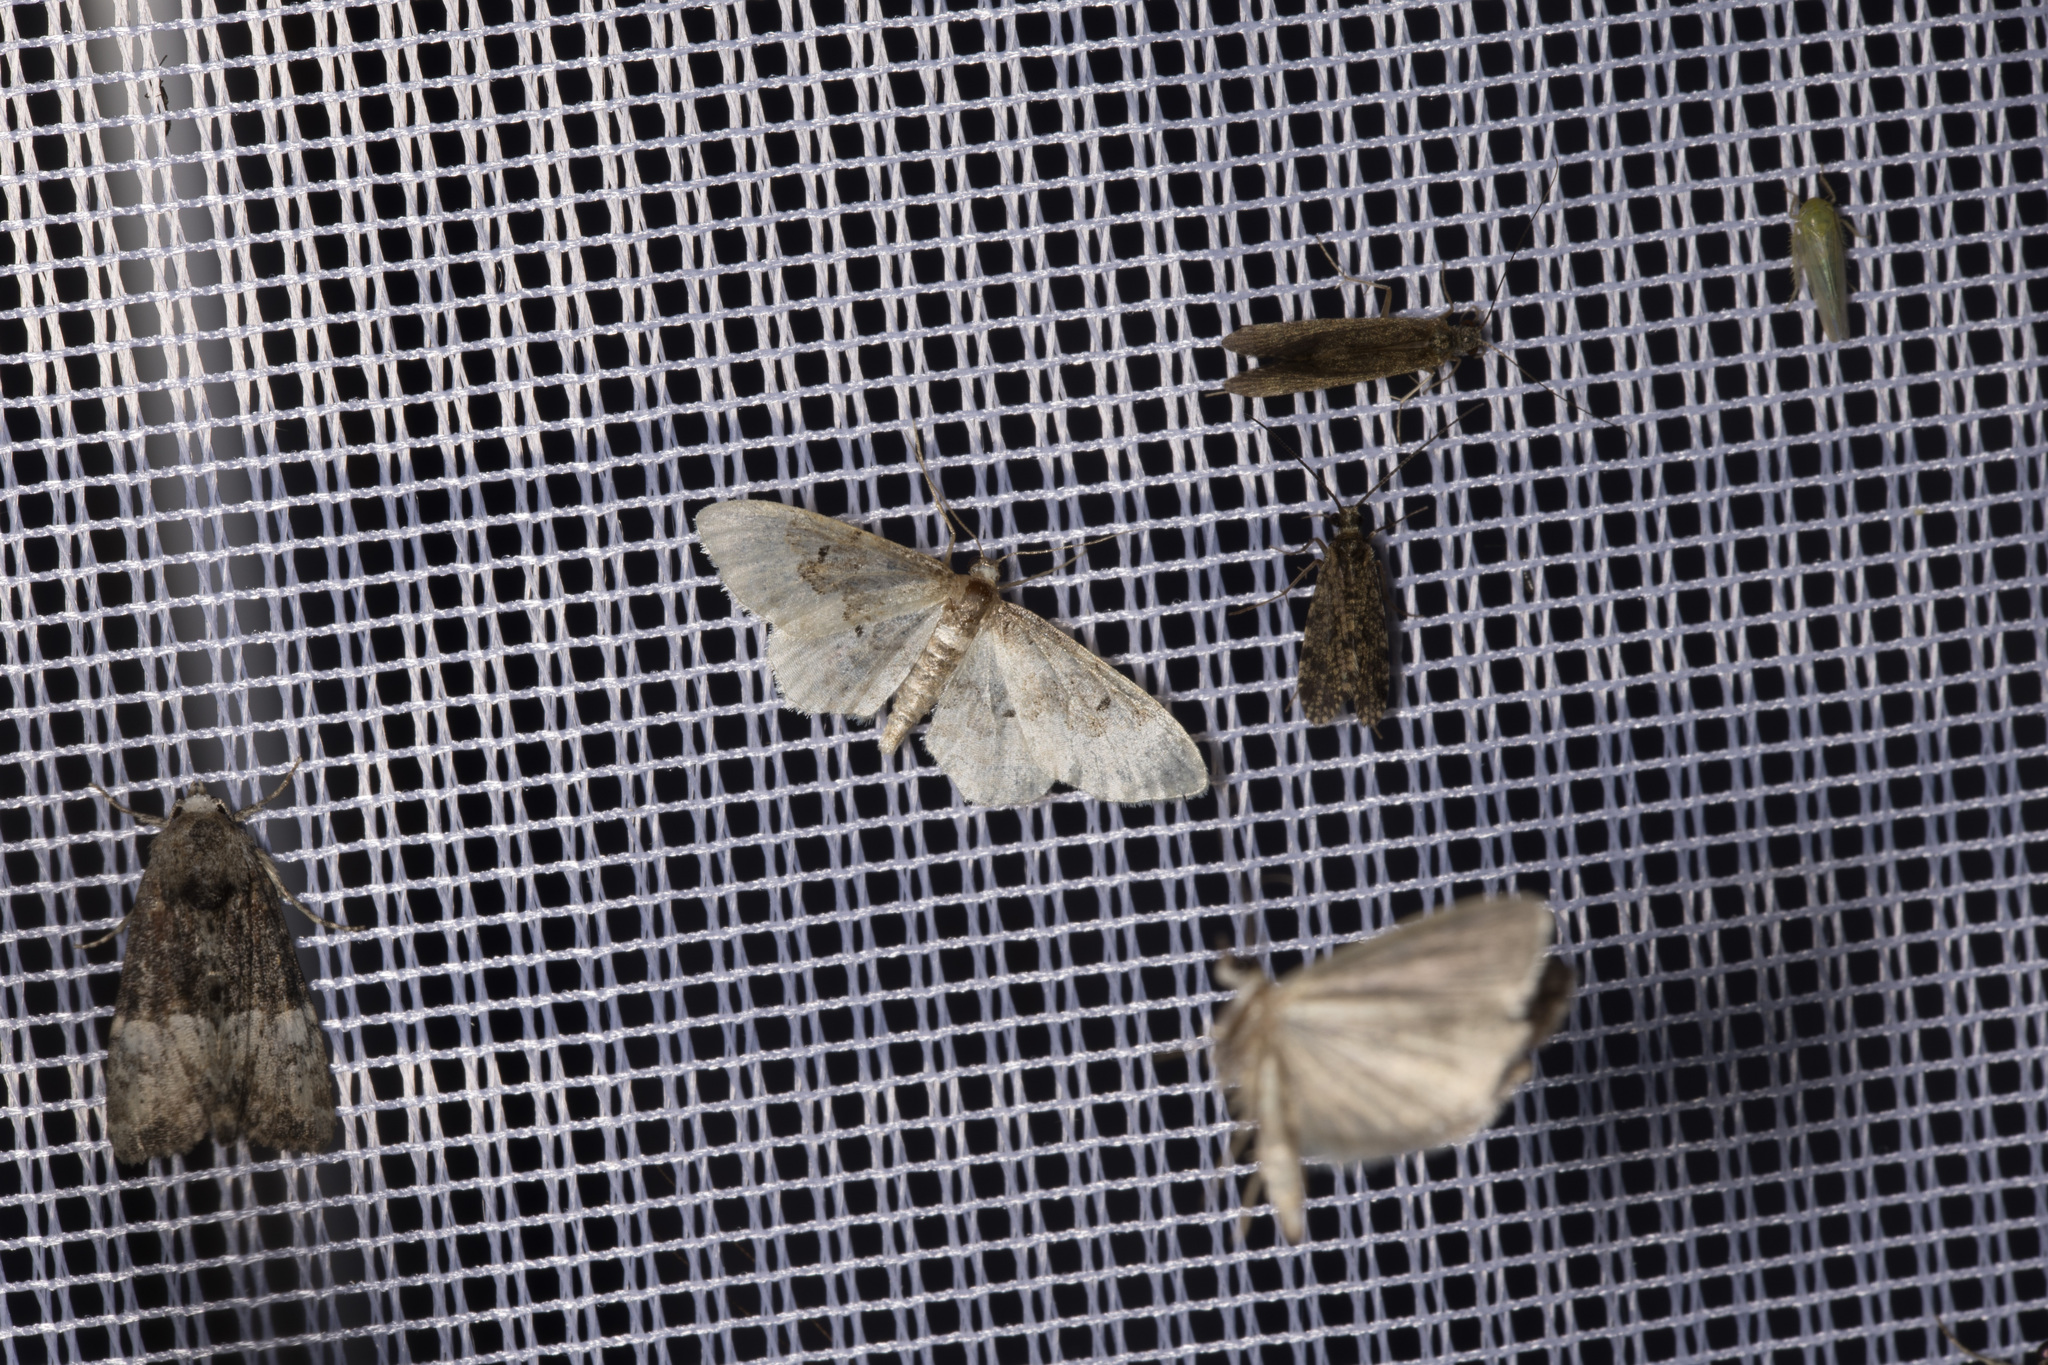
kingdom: Animalia
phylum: Arthropoda
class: Insecta
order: Lepidoptera
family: Geometridae
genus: Idaea
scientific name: Idaea rusticata
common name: Least carpet
